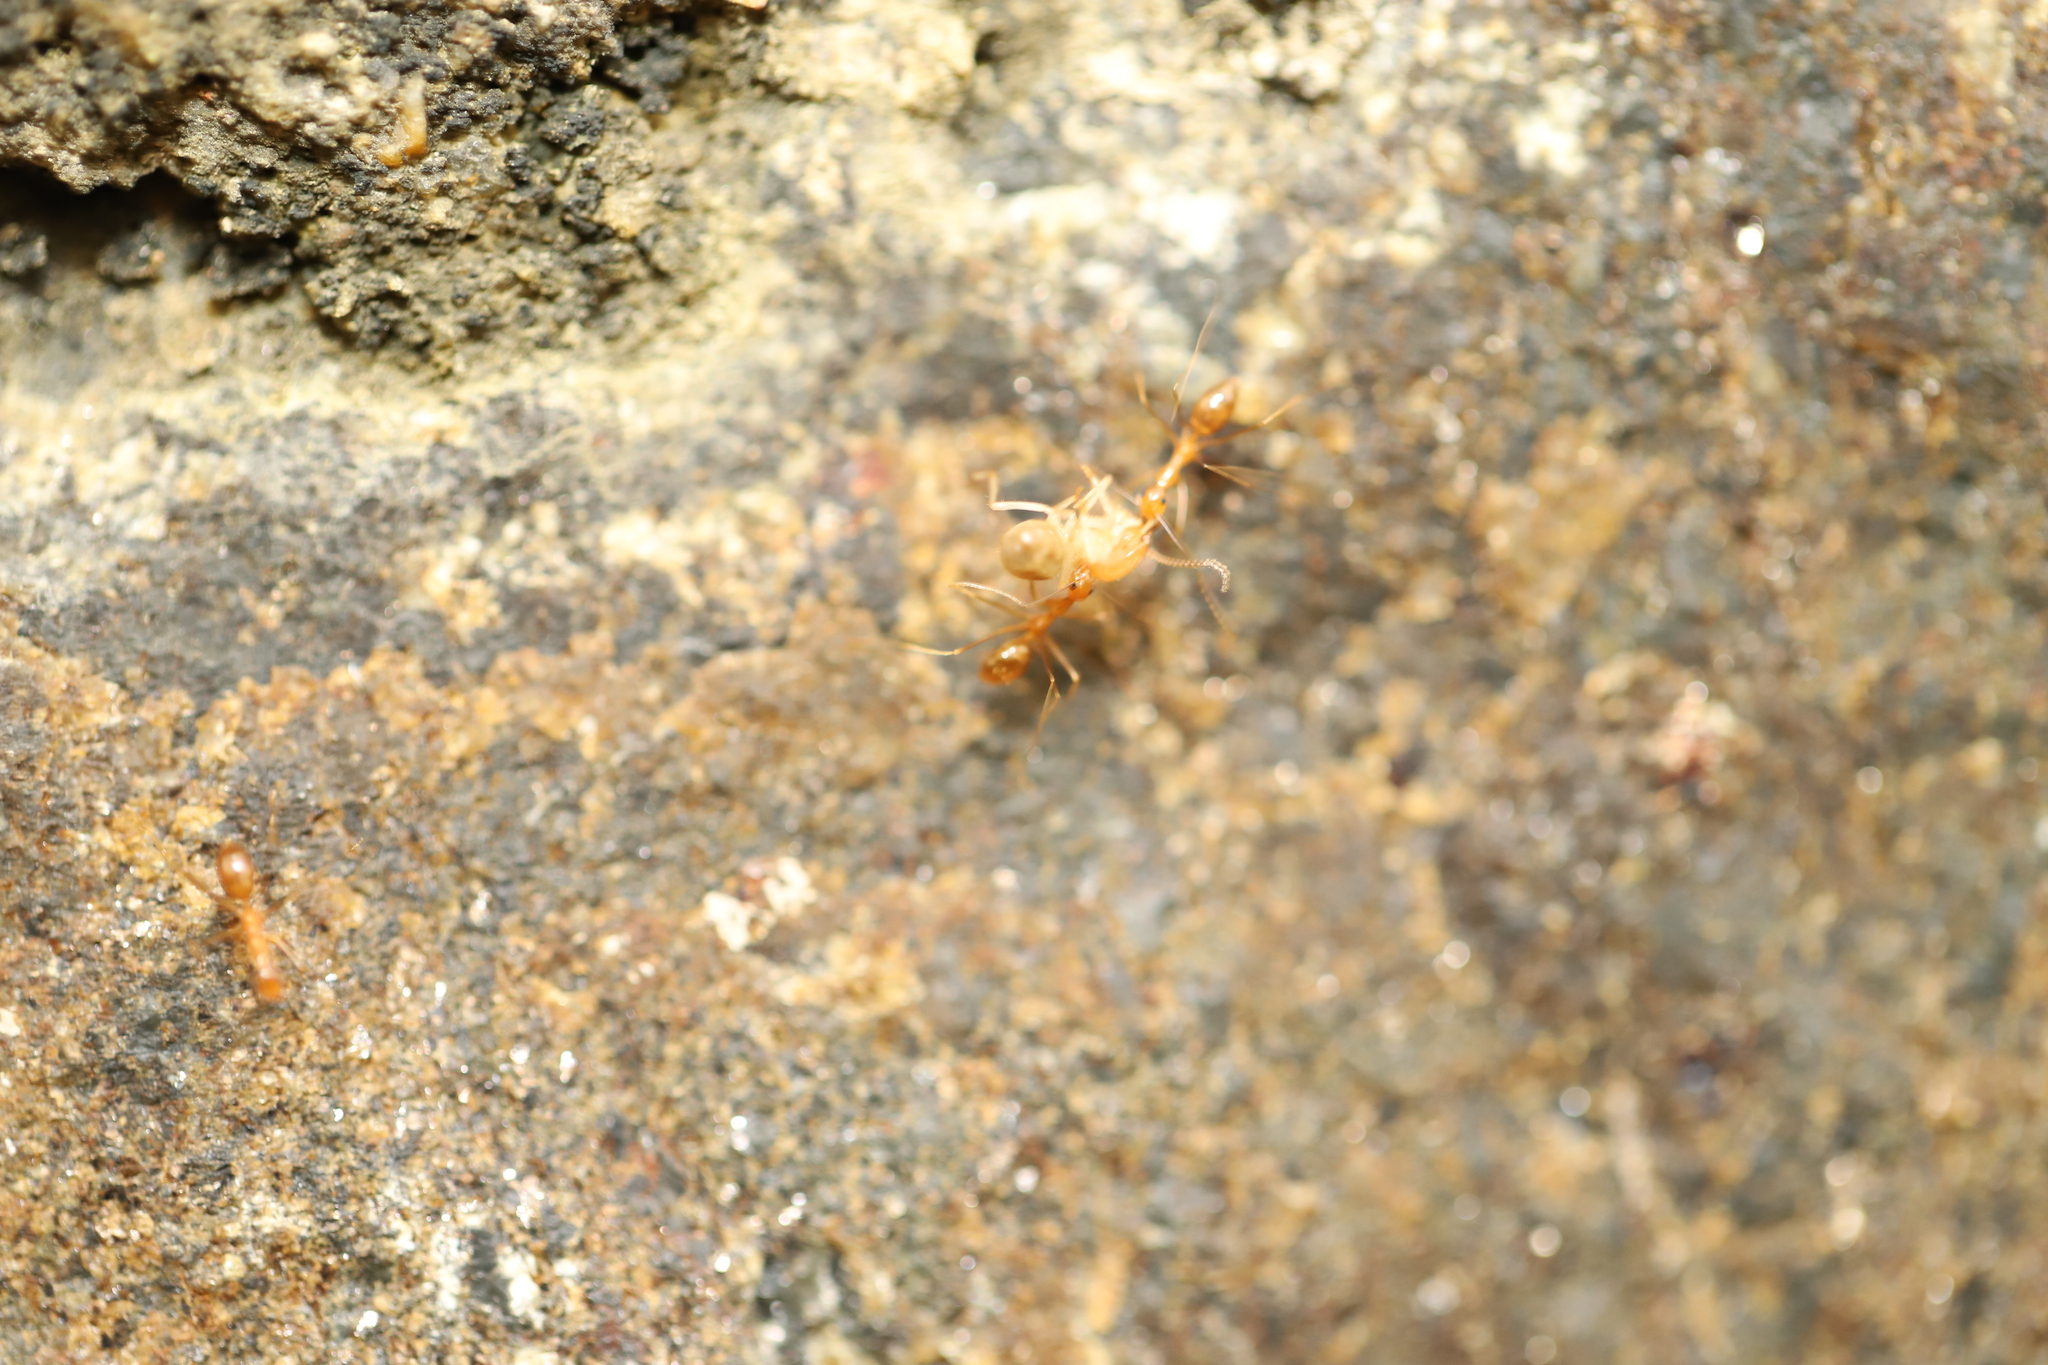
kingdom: Animalia
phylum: Arthropoda
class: Insecta
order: Hymenoptera
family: Formicidae
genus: Anoplolepis
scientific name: Anoplolepis gracilipes
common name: Ant
